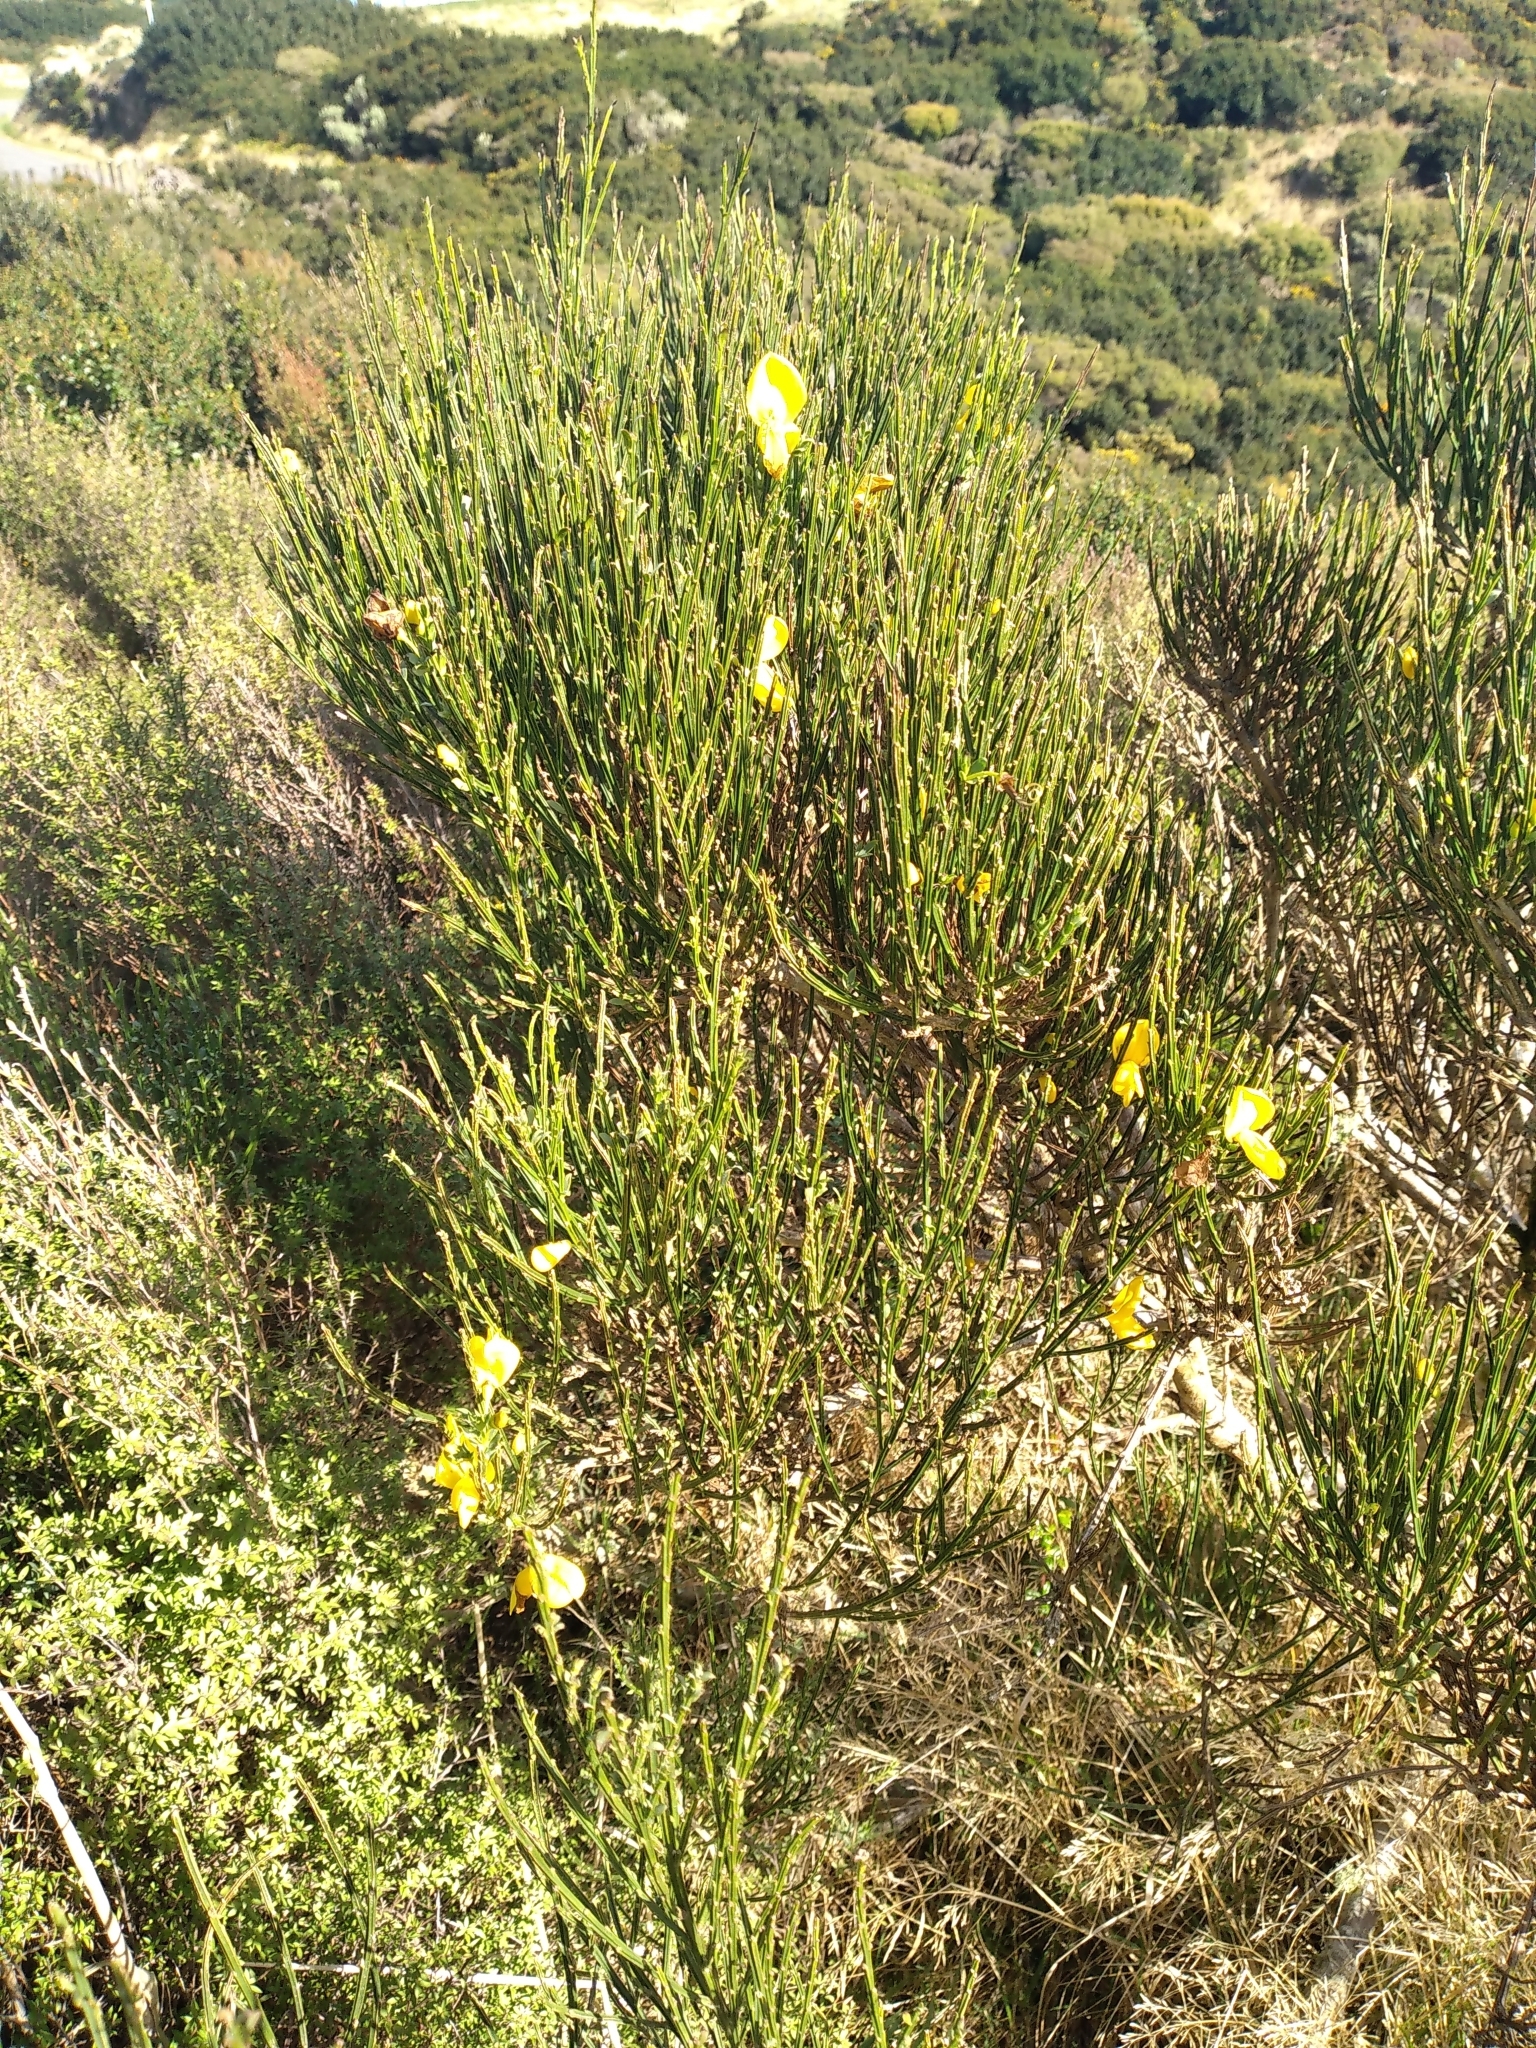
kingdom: Plantae
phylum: Tracheophyta
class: Magnoliopsida
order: Fabales
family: Fabaceae
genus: Cytisus
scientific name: Cytisus scoparius
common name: Scotch broom
